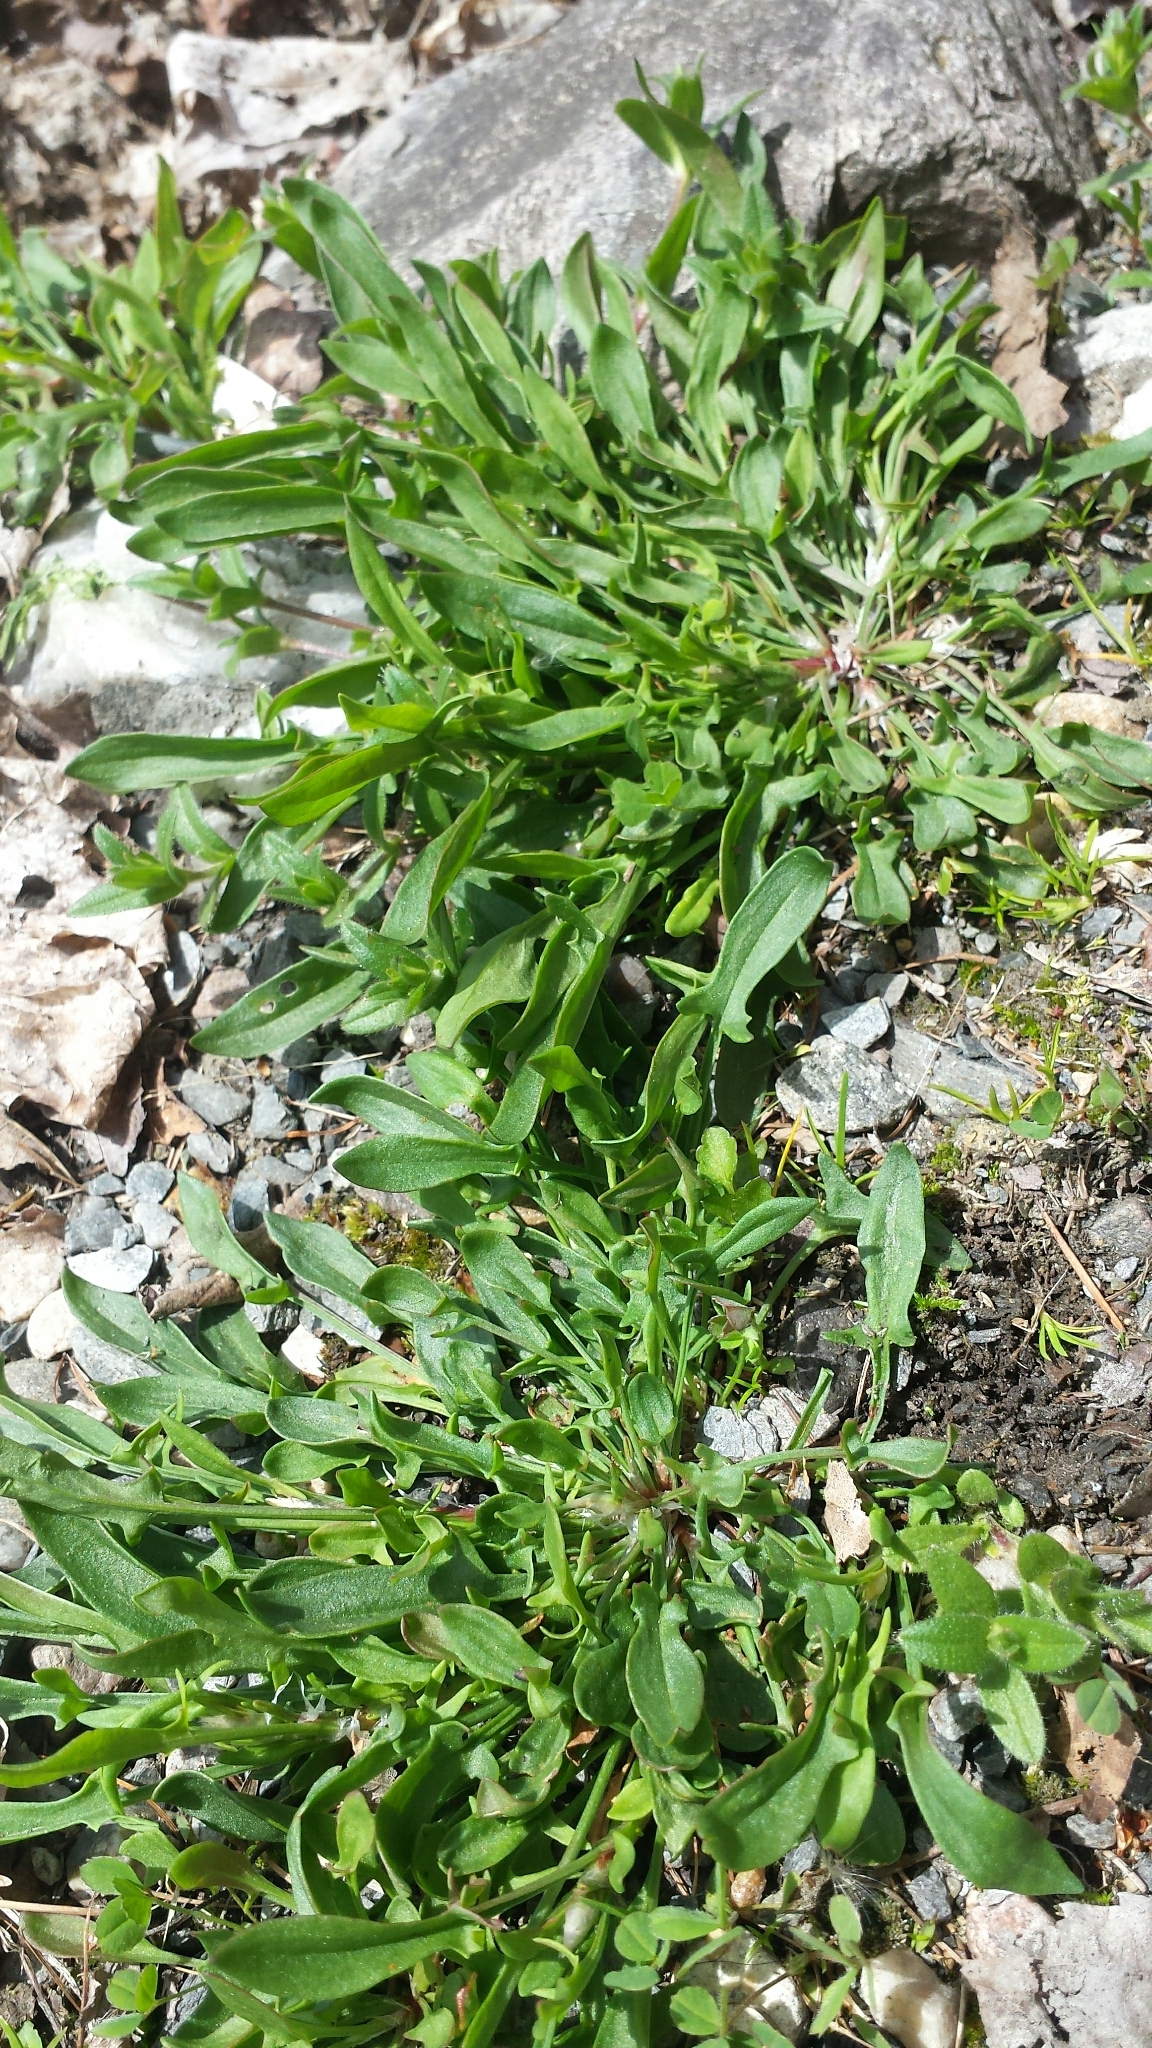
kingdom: Plantae
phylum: Tracheophyta
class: Magnoliopsida
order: Caryophyllales
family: Polygonaceae
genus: Rumex
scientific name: Rumex acetosella
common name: Common sheep sorrel
